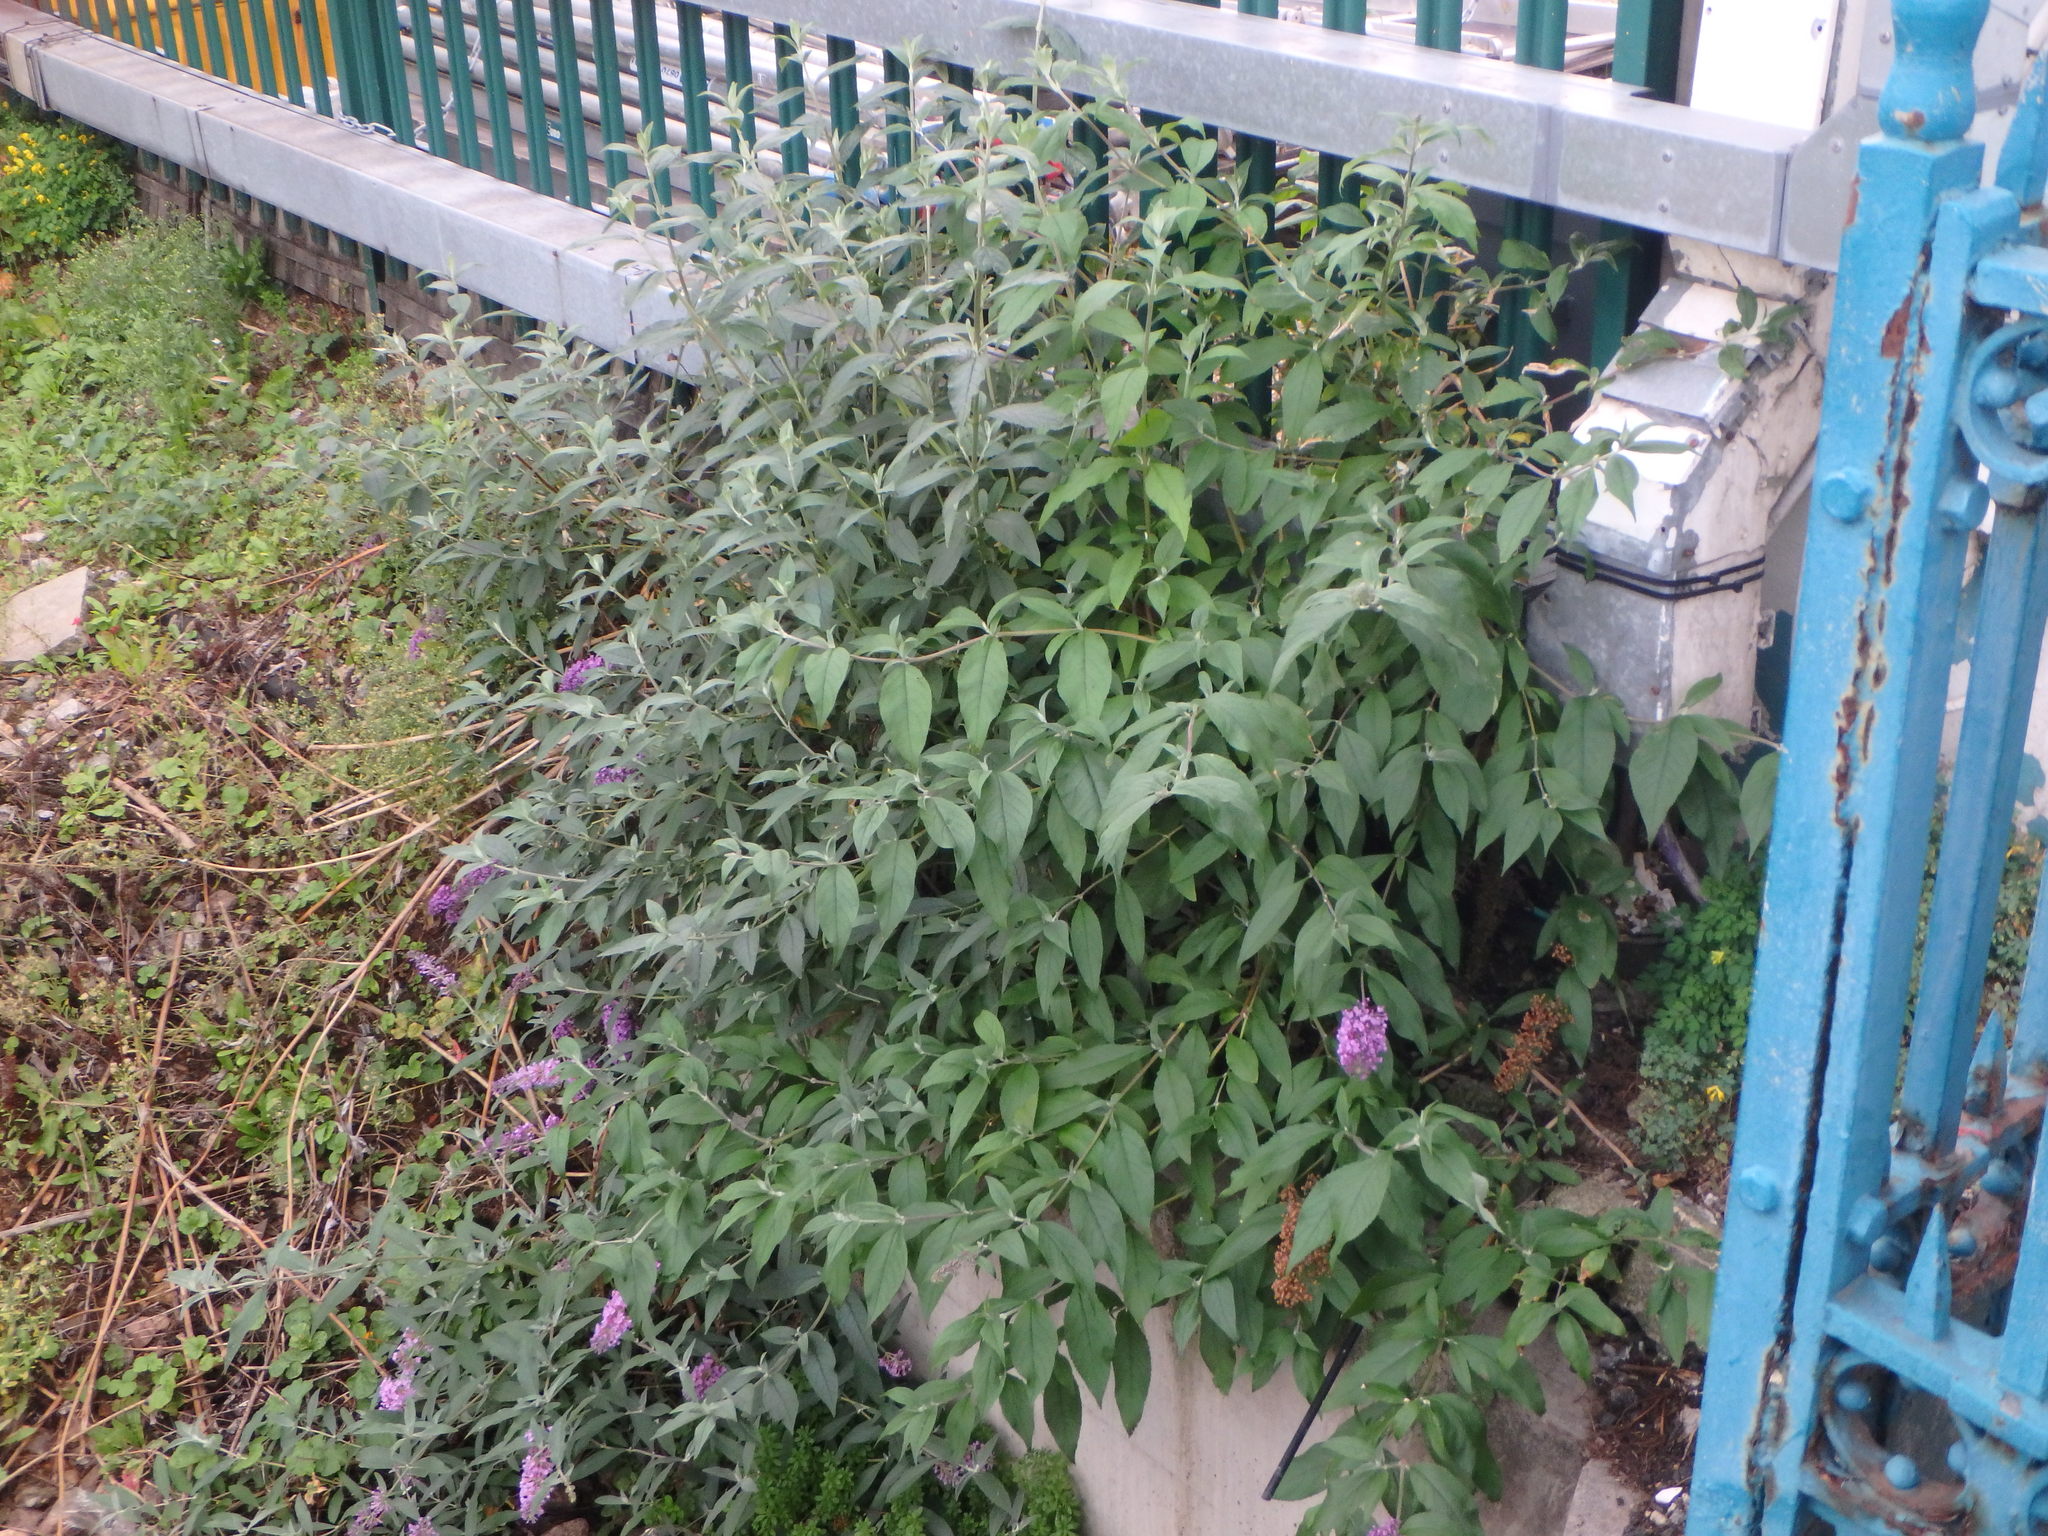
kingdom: Plantae
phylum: Tracheophyta
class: Magnoliopsida
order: Lamiales
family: Scrophulariaceae
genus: Buddleja
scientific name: Buddleja davidii
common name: Butterfly-bush
